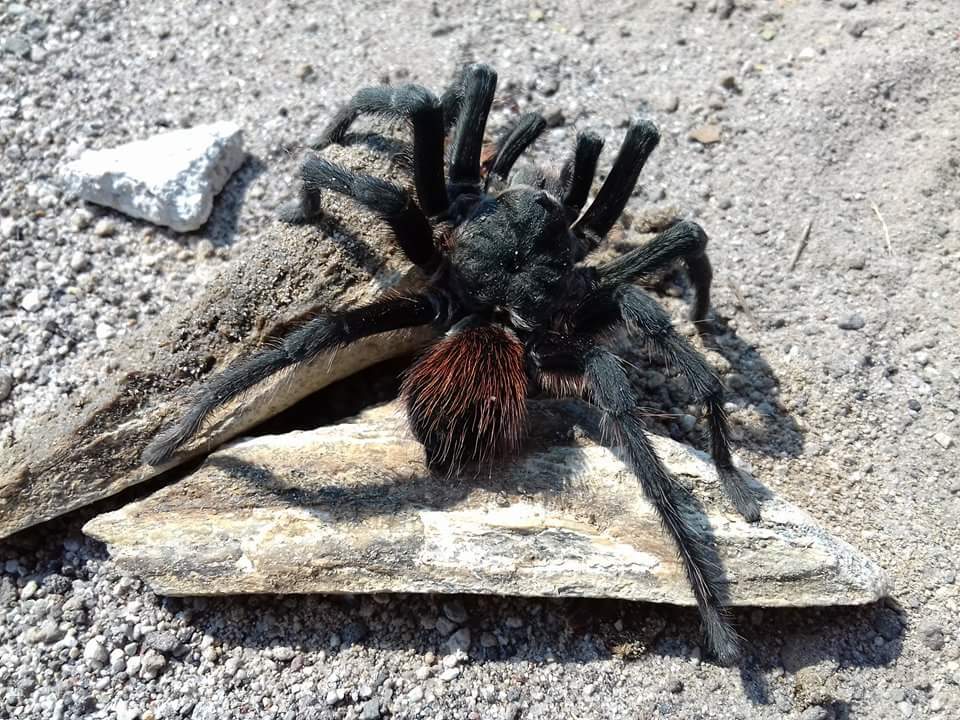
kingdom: Animalia
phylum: Arthropoda
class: Arachnida
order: Araneae
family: Theraphosidae
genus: Aphonopelma
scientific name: Aphonopelma caniceps
